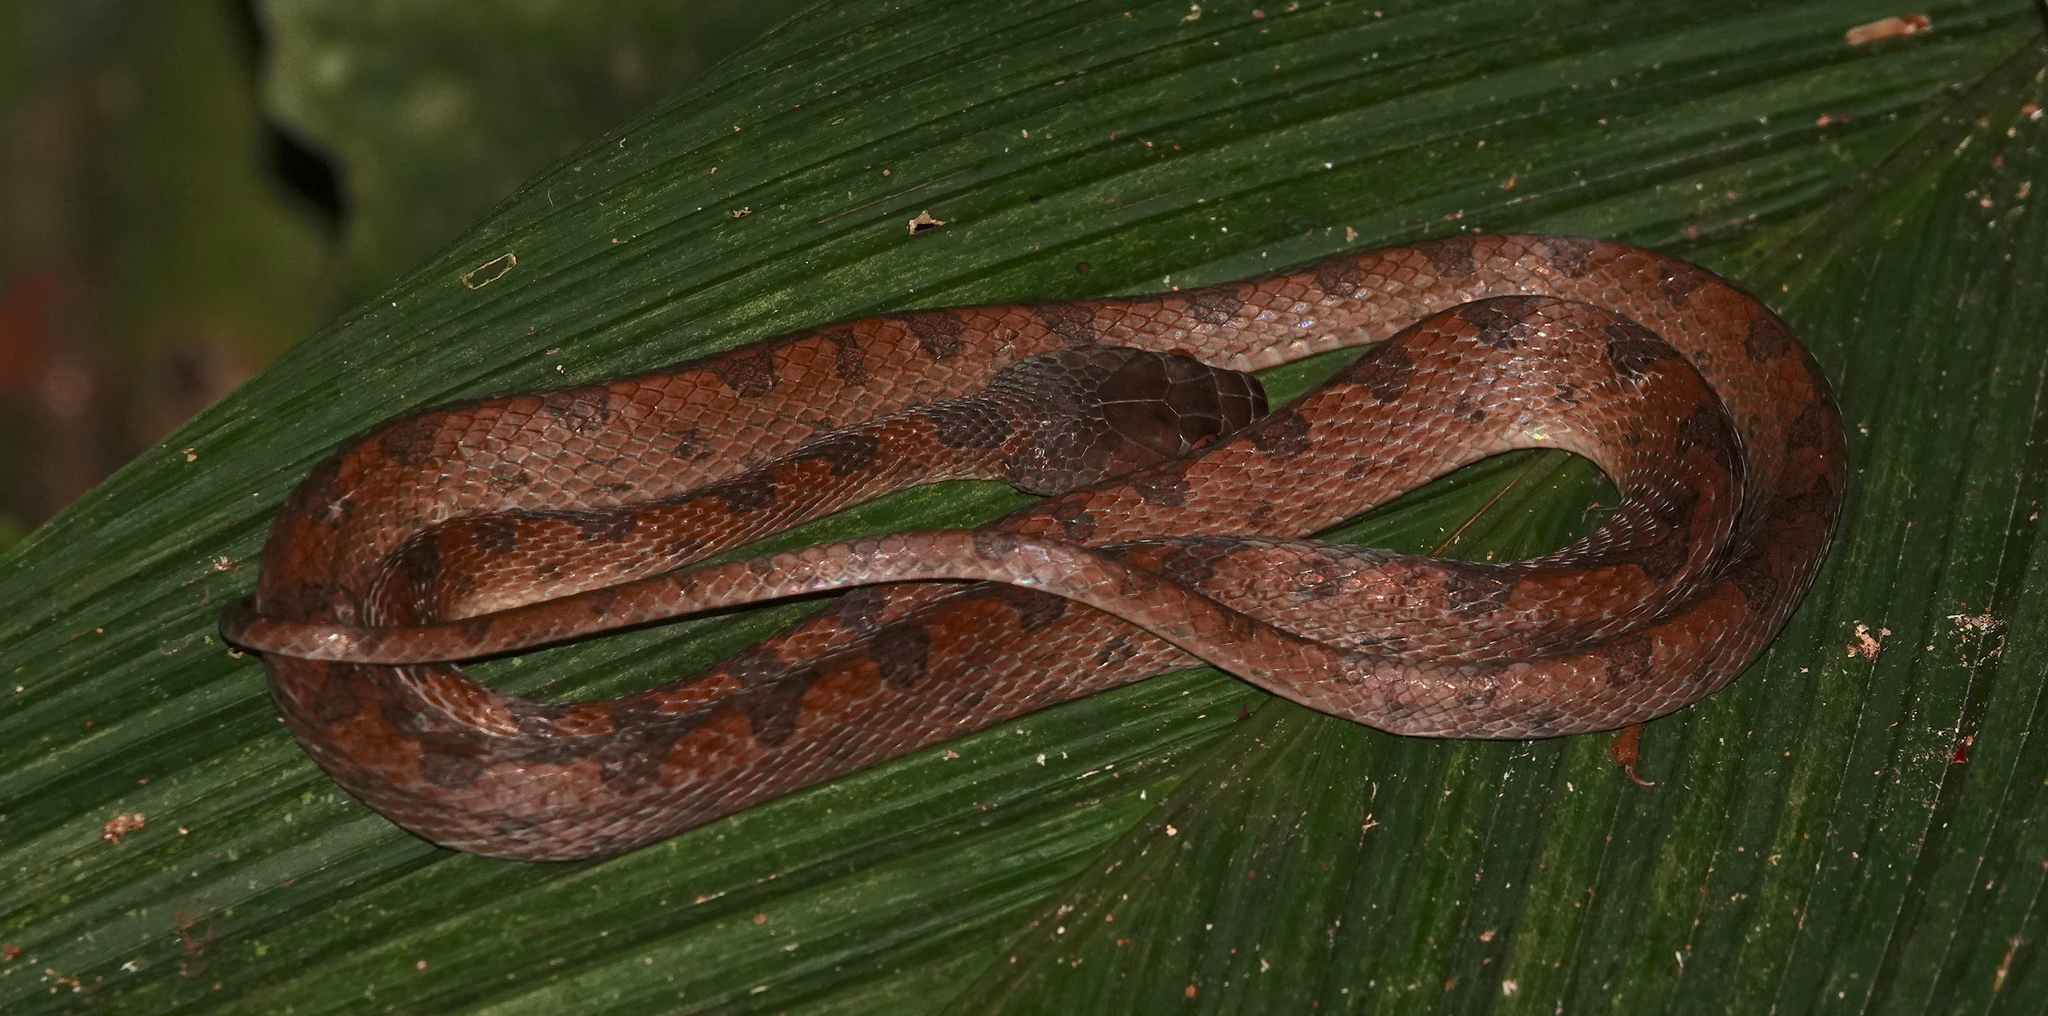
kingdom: Animalia
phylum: Chordata
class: Squamata
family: Colubridae
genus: Leptodeira
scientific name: Leptodeira ornata
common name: Northern cat-eyed snake
